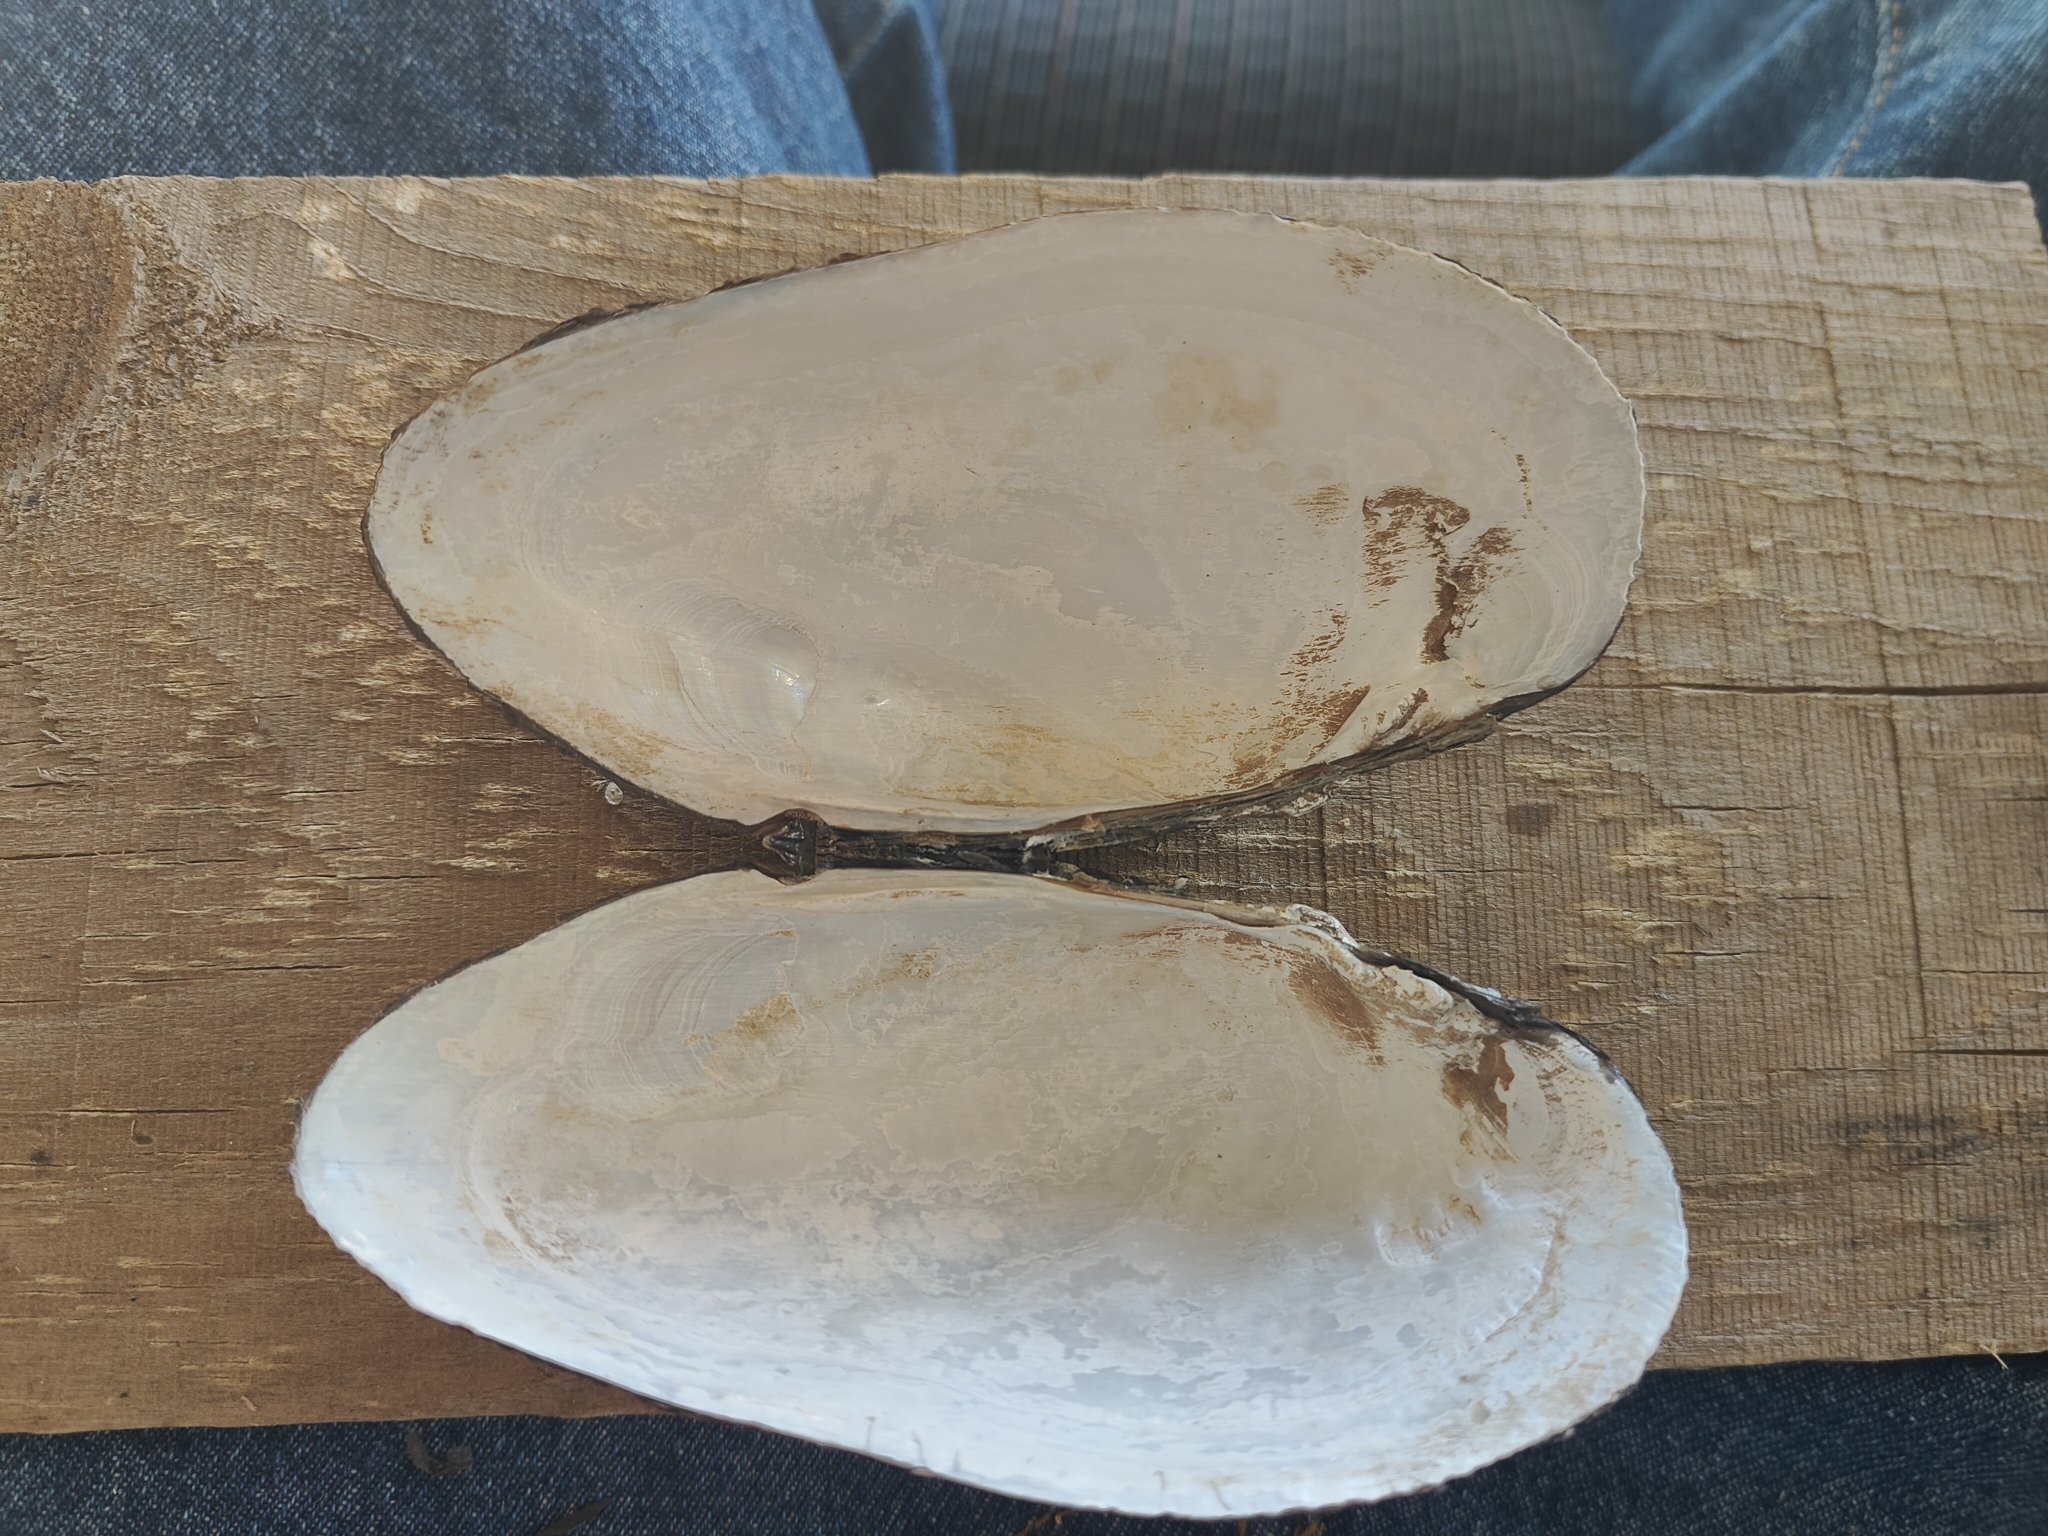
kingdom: Animalia
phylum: Mollusca
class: Bivalvia
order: Unionida
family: Unionidae
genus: Uniomerus
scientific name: Uniomerus tetralasmus
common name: Pondhorn
